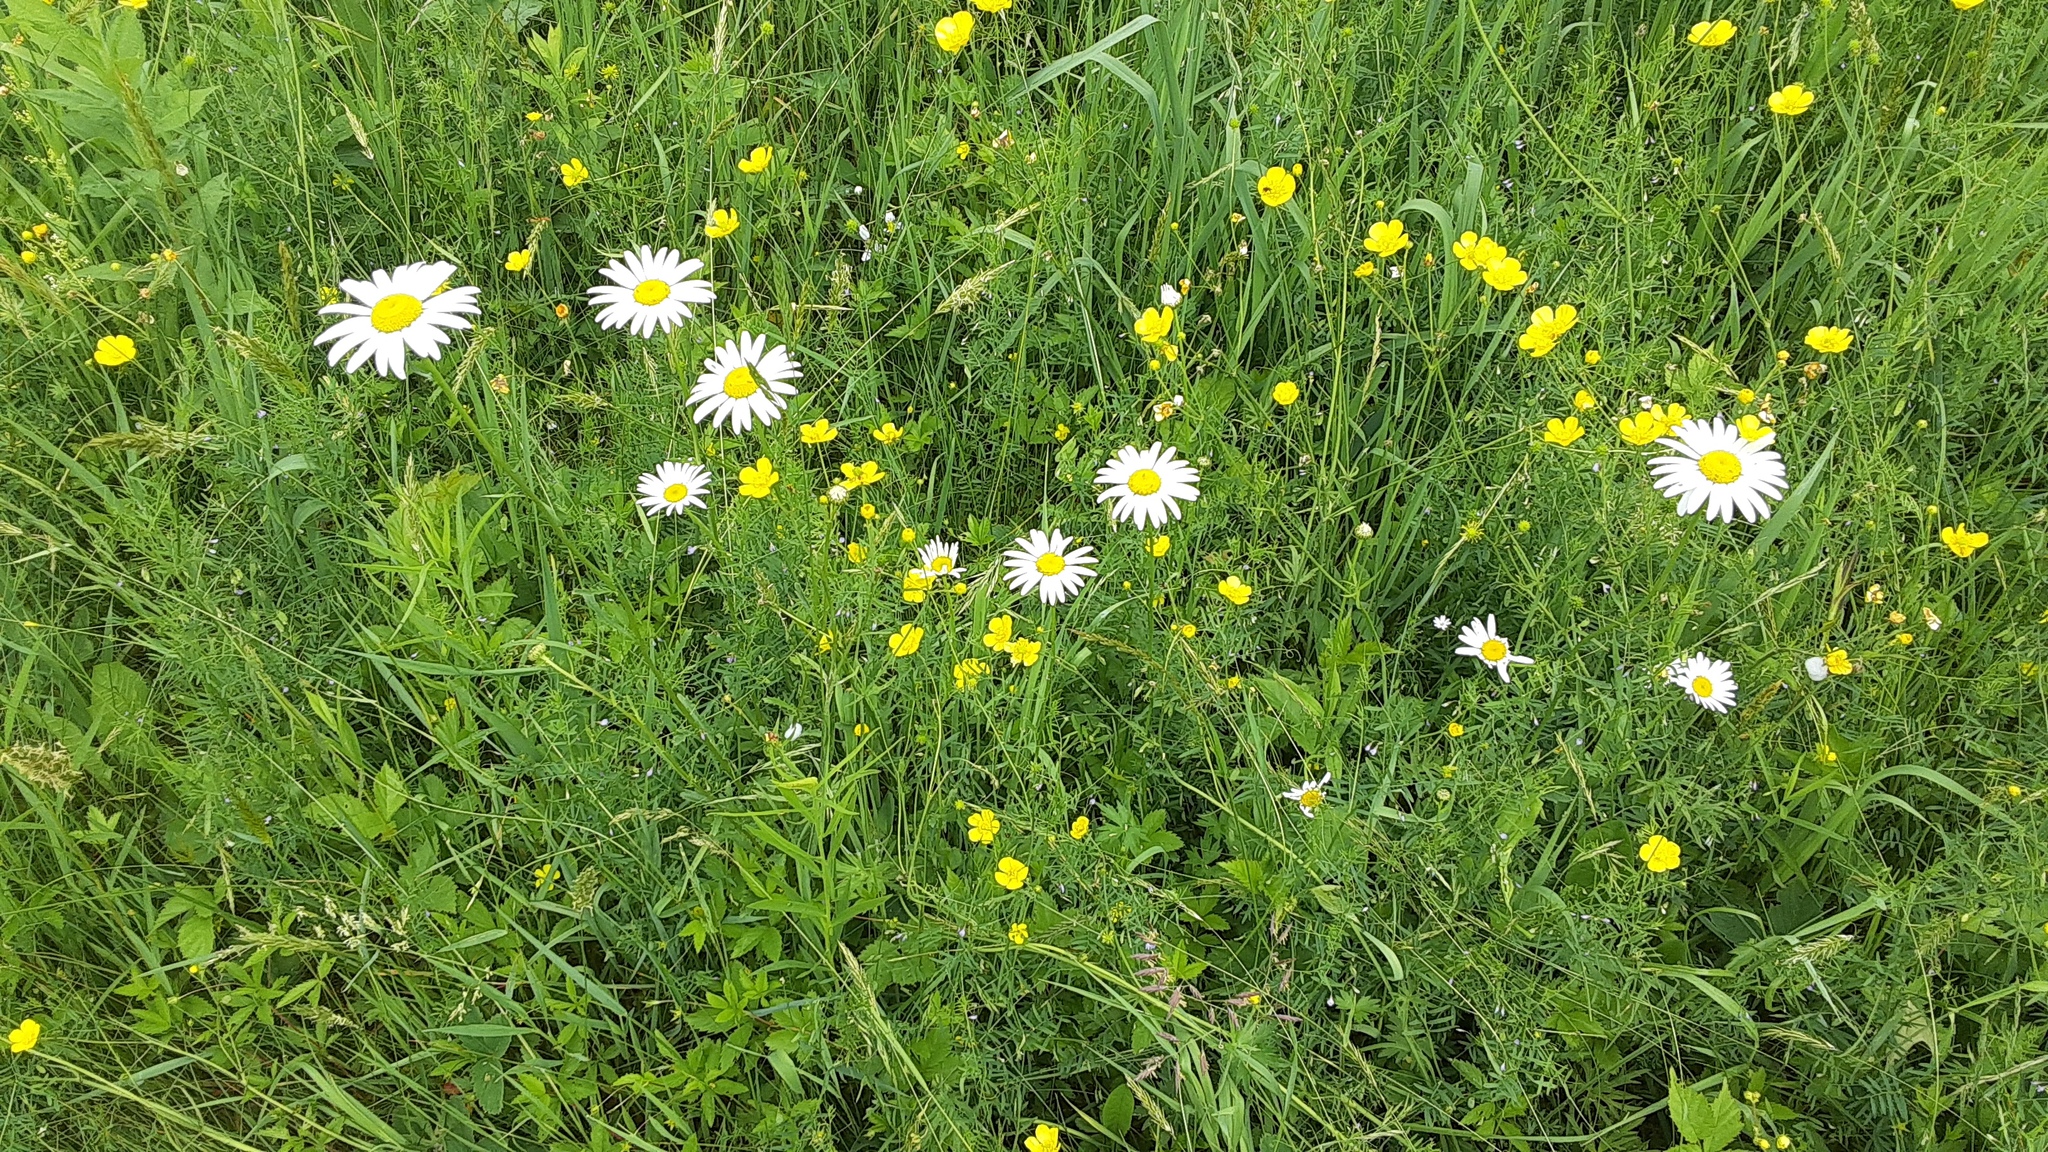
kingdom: Plantae
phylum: Tracheophyta
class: Magnoliopsida
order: Asterales
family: Asteraceae
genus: Leucanthemum
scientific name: Leucanthemum vulgare
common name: Oxeye daisy
